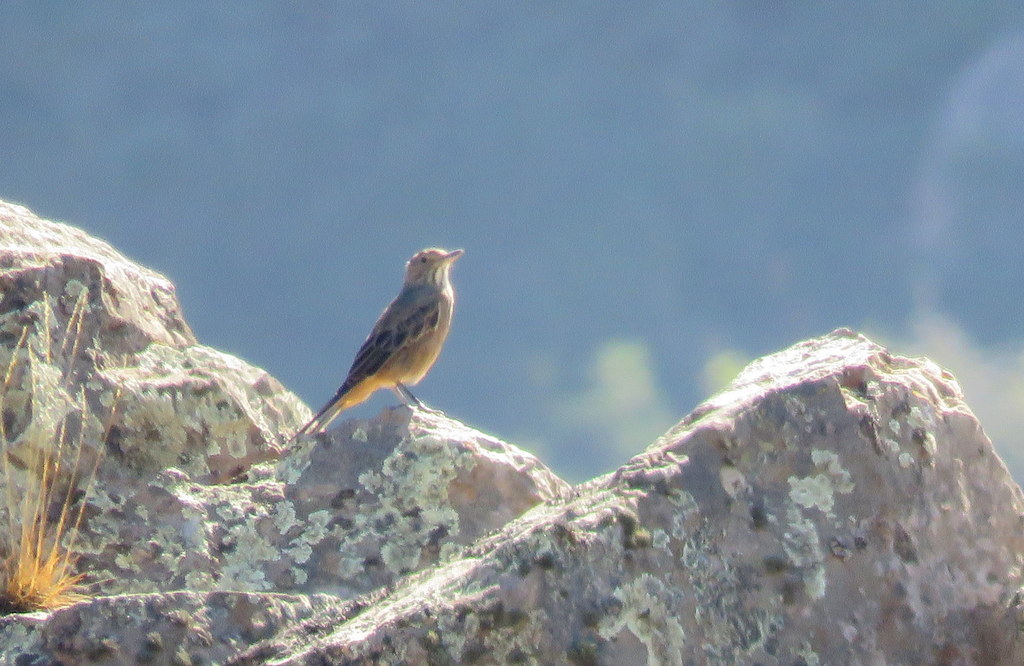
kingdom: Animalia
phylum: Chordata
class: Aves
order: Passeriformes
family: Tyrannidae
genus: Agriornis
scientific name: Agriornis lividus
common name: Great shrike-tyrant
